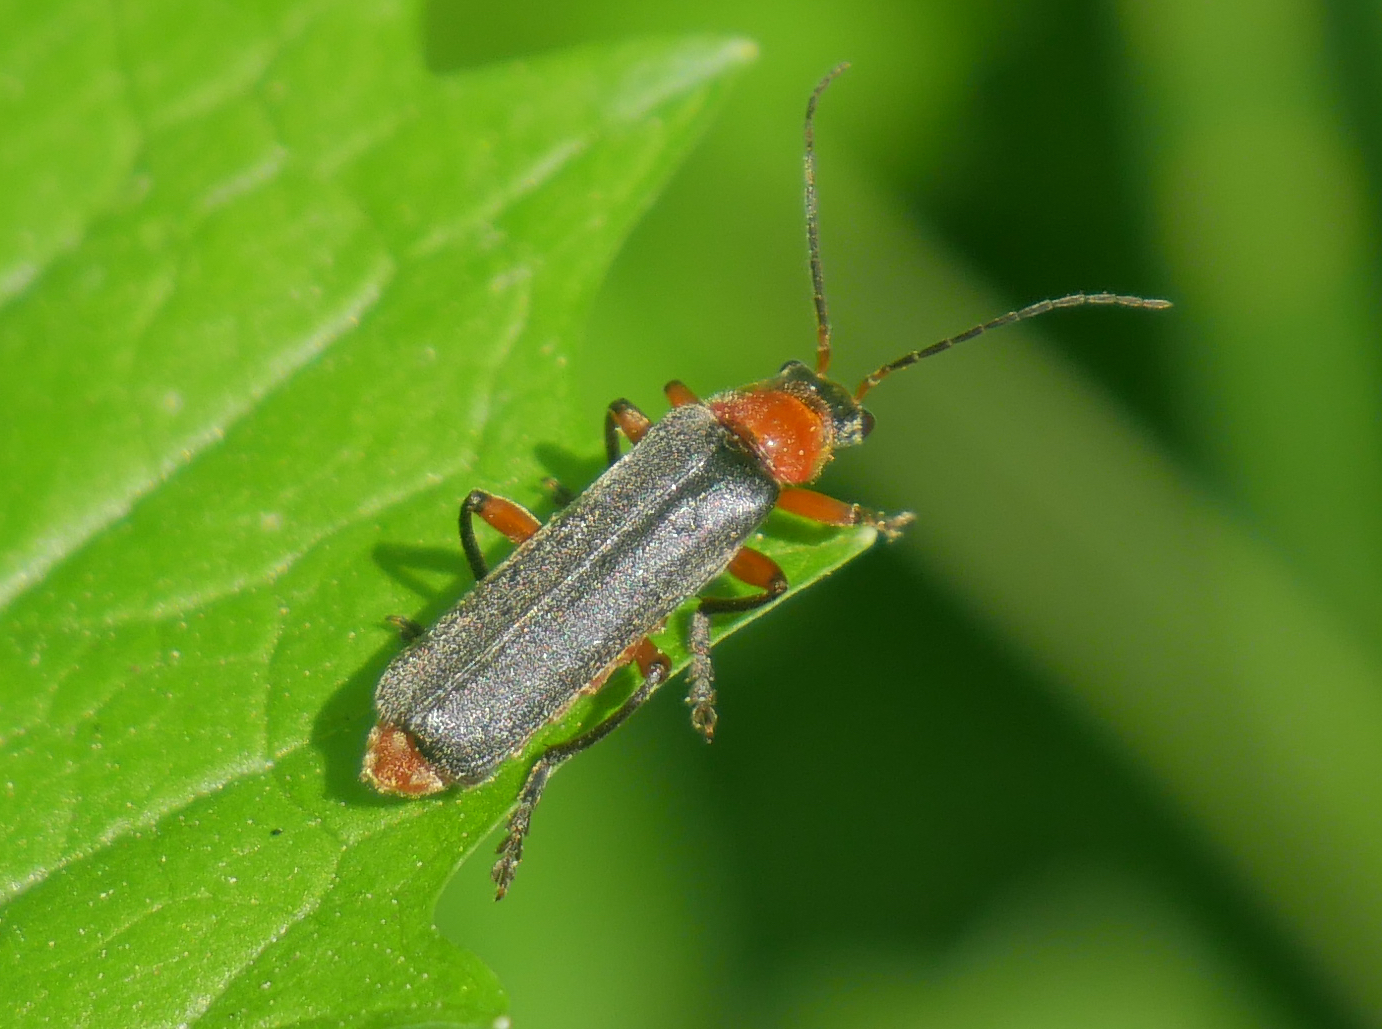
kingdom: Animalia
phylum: Arthropoda
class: Insecta
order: Coleoptera
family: Cantharidae
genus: Cantharis
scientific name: Cantharis pellucida
